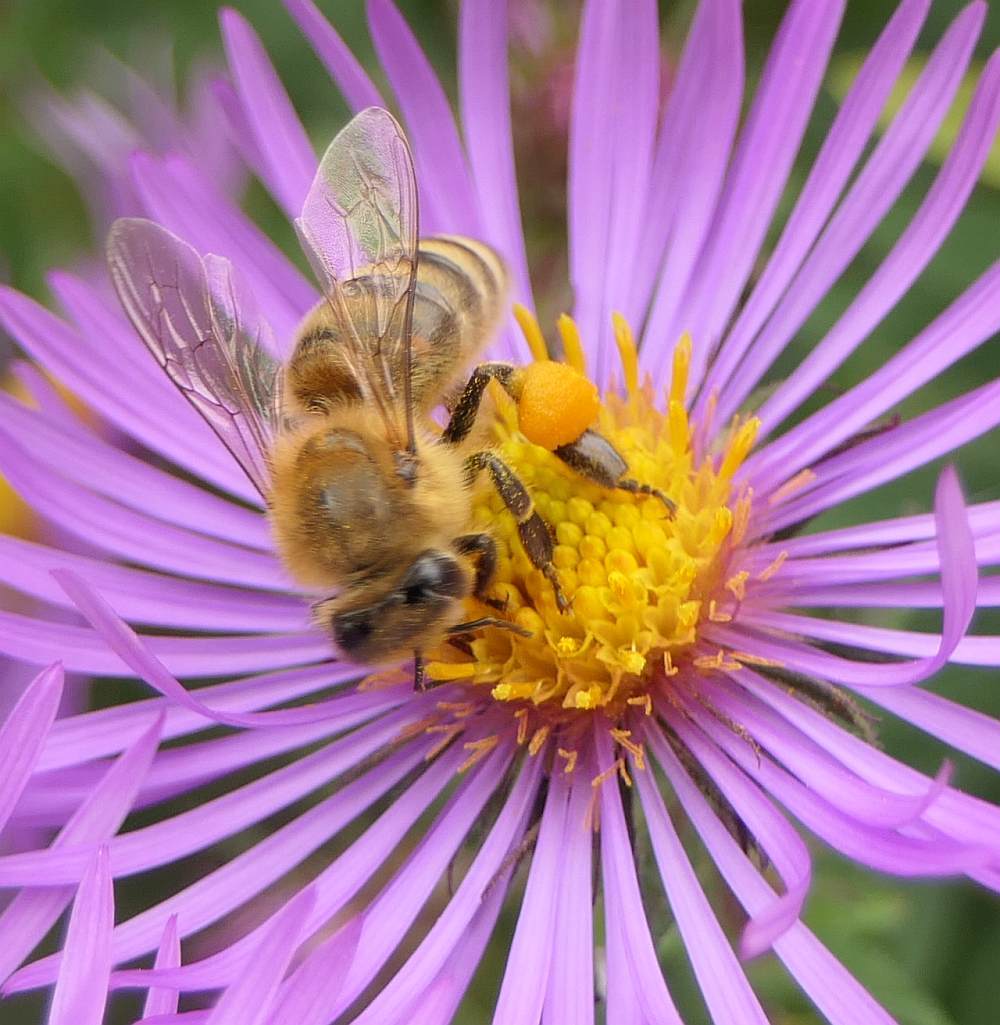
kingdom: Animalia
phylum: Arthropoda
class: Insecta
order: Hymenoptera
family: Apidae
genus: Apis
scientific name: Apis mellifera
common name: Honey bee
